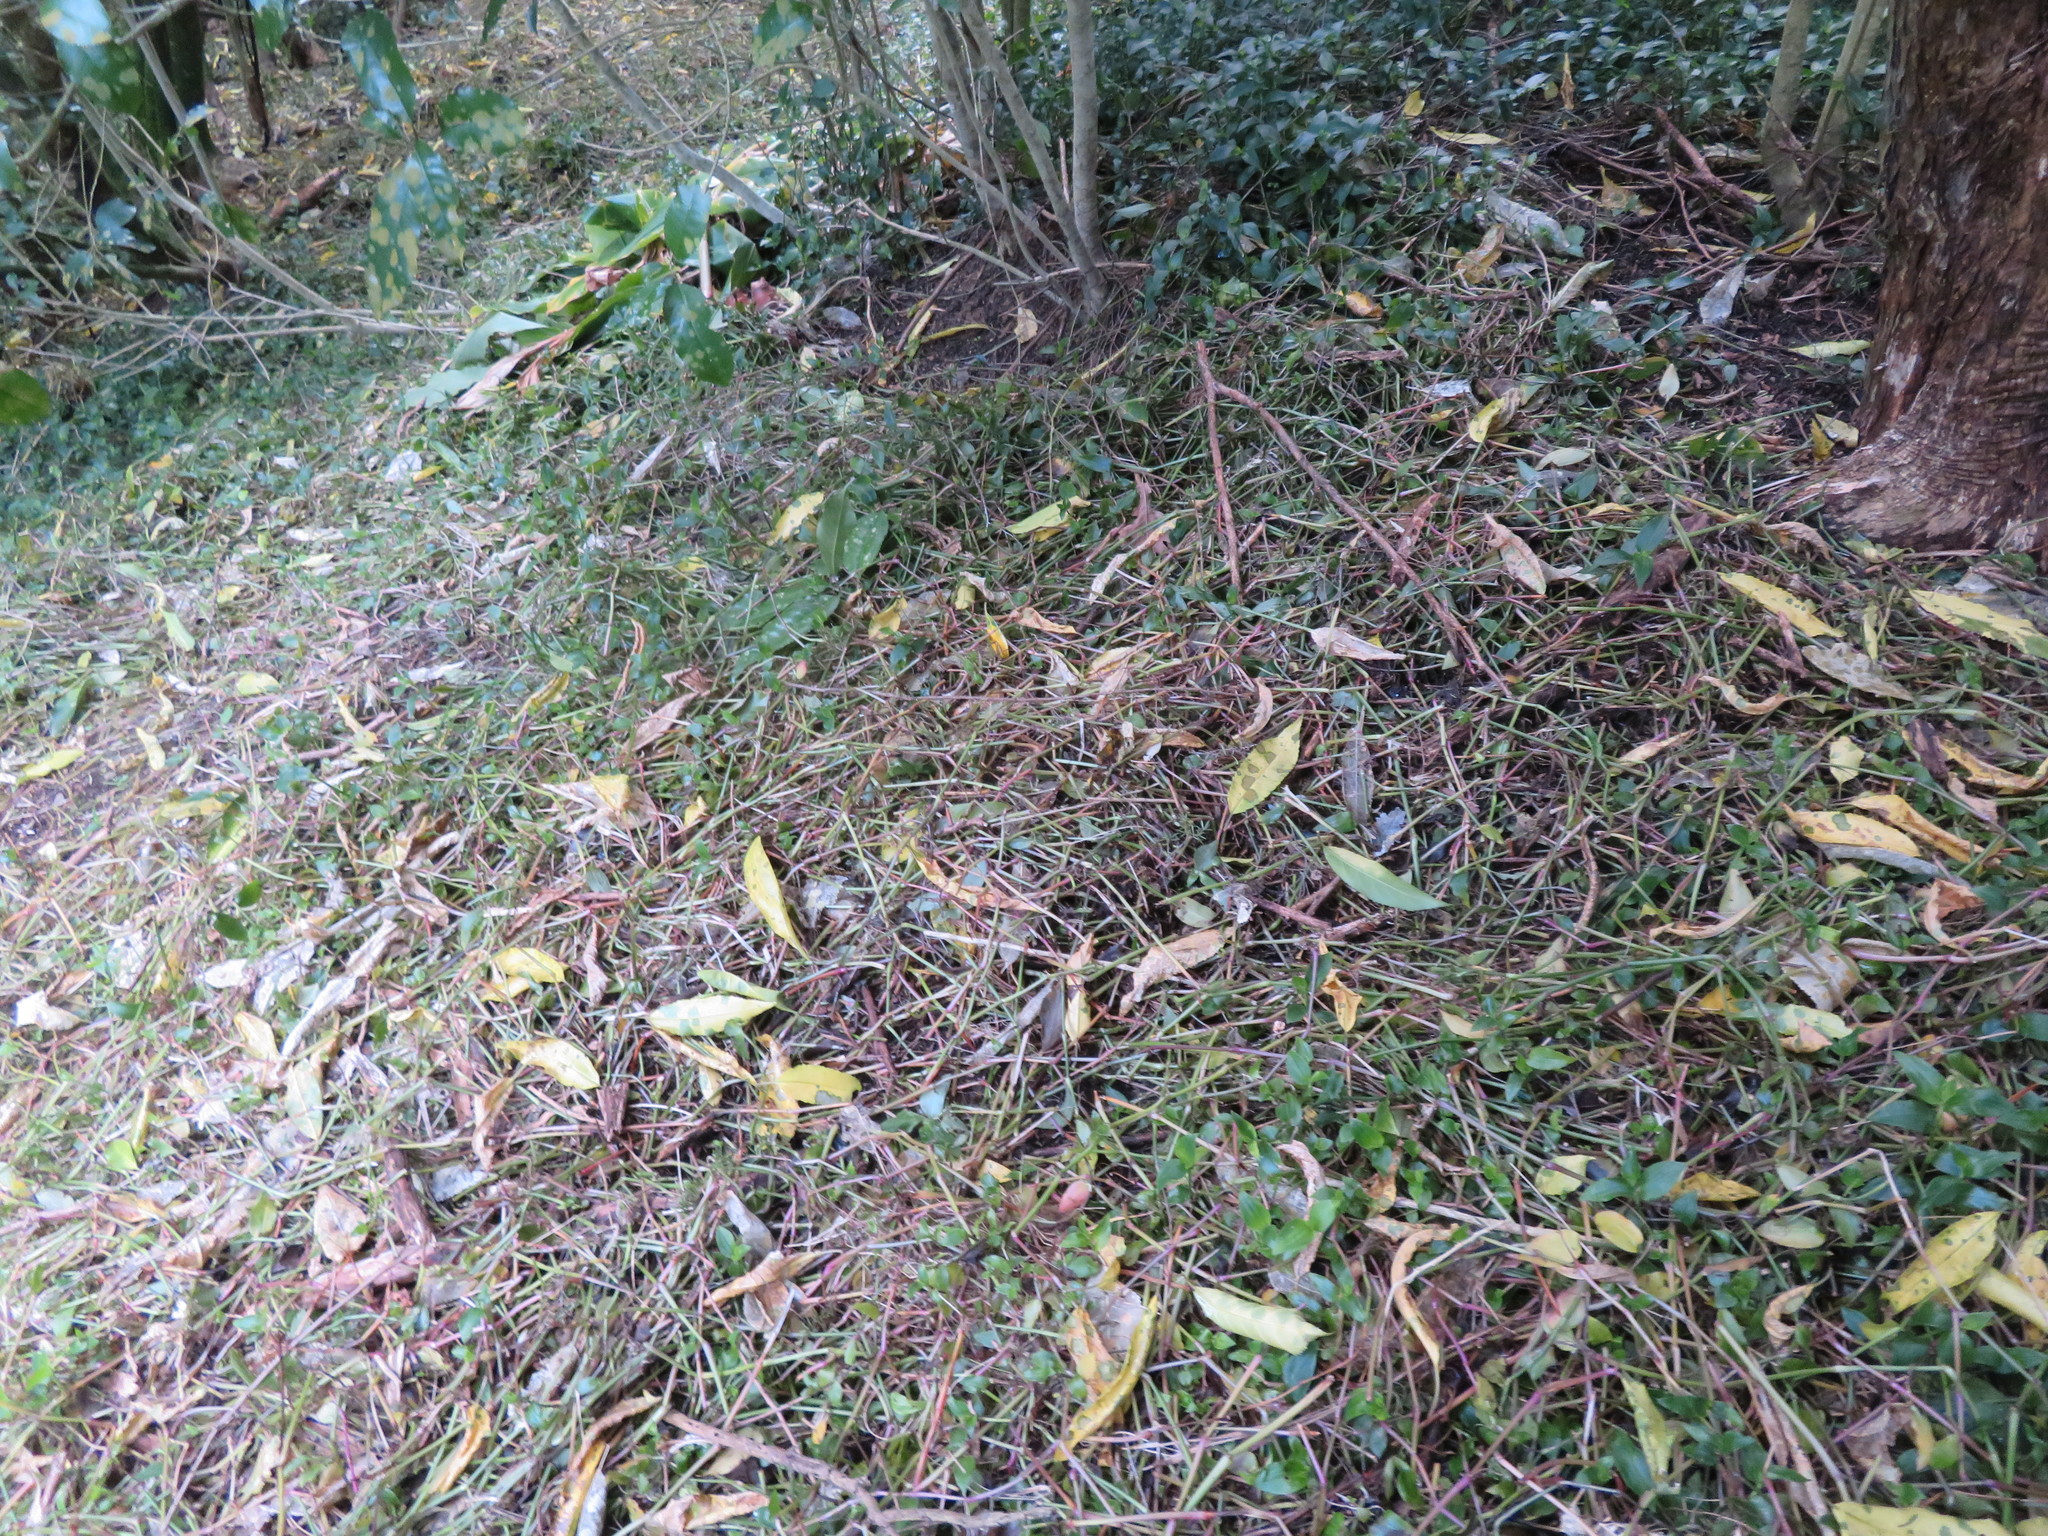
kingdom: Plantae
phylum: Tracheophyta
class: Liliopsida
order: Commelinales
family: Commelinaceae
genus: Tradescantia
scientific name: Tradescantia fluminensis
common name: Wandering-jew
